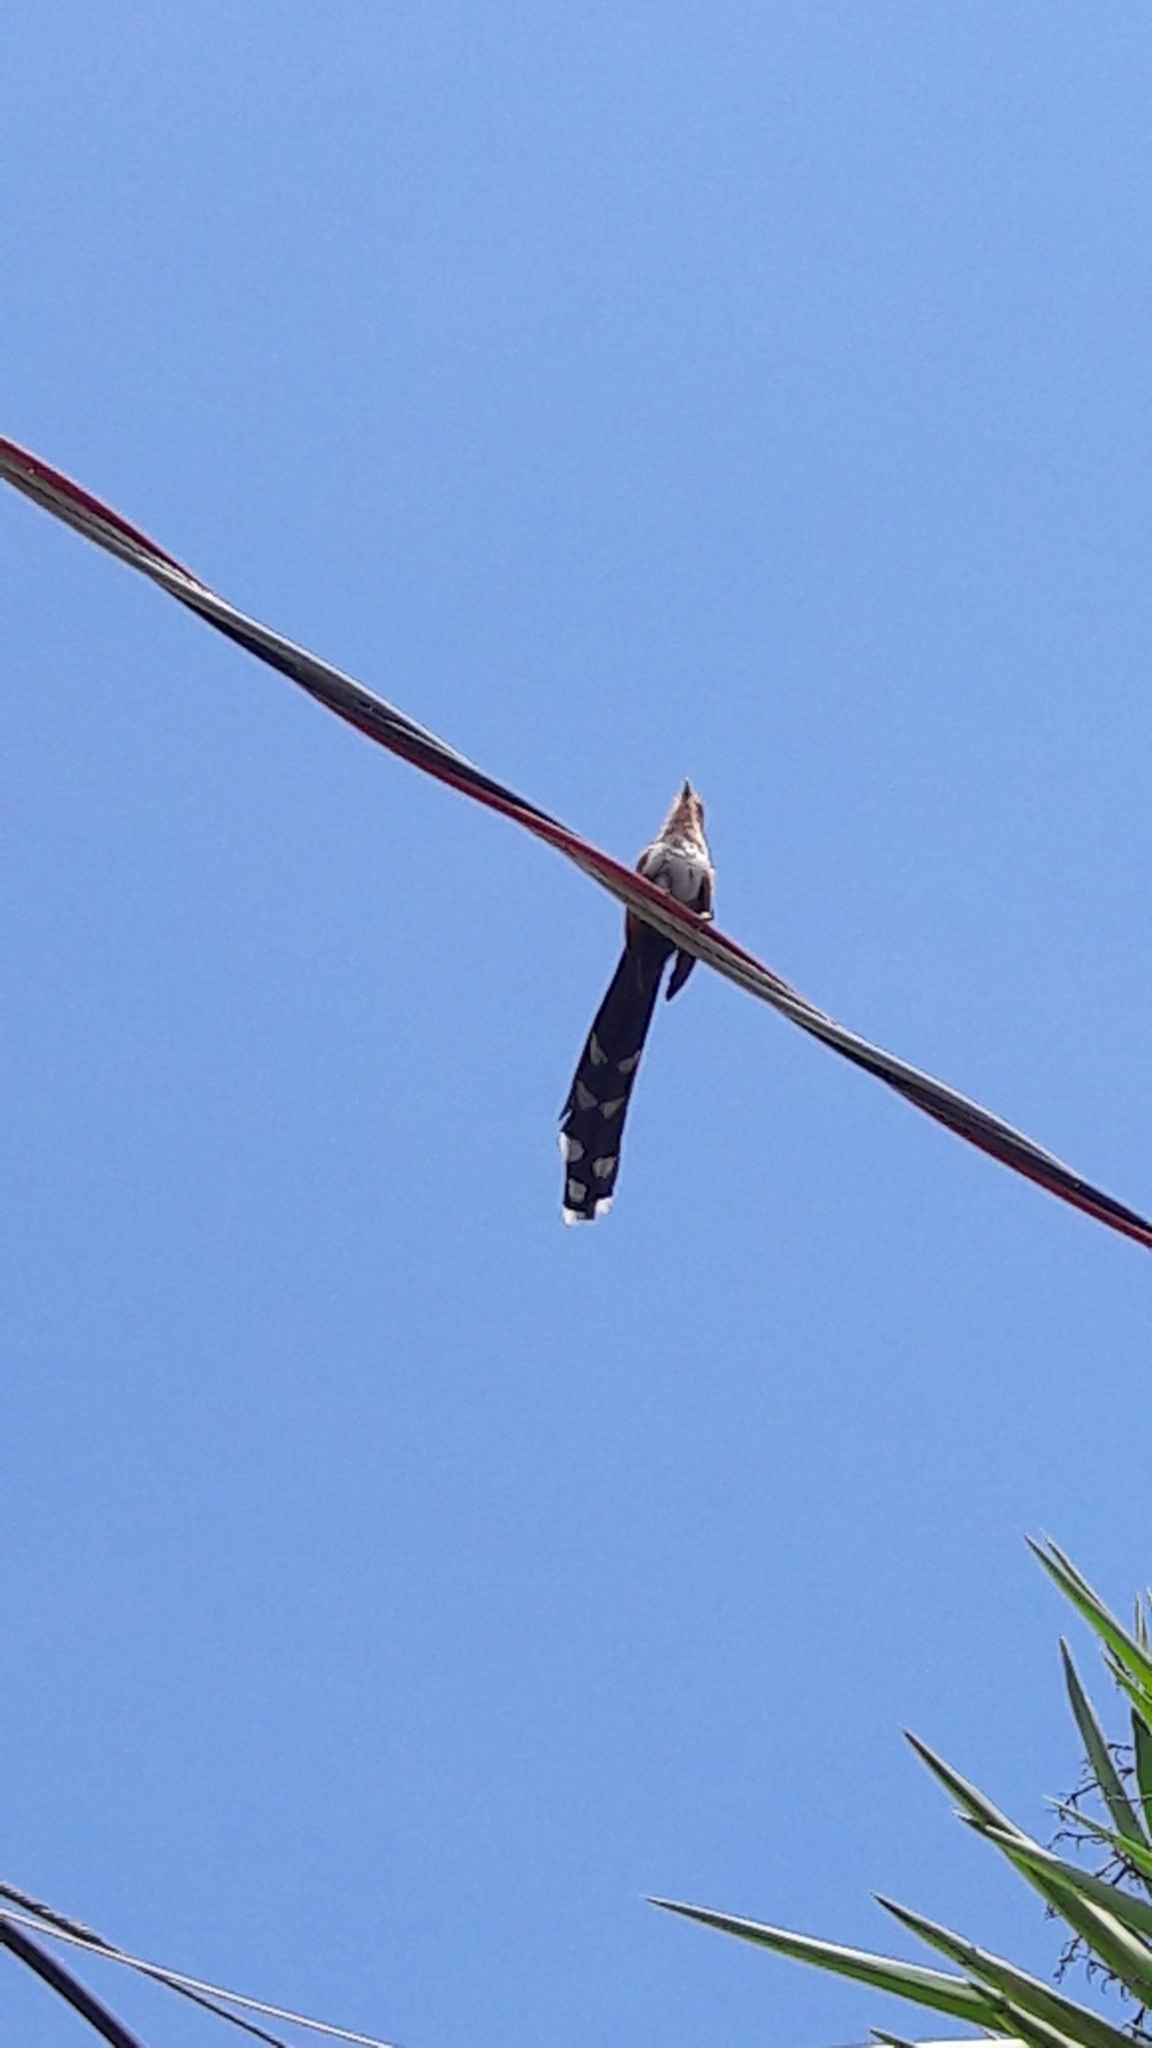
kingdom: Animalia
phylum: Chordata
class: Aves
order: Cuculiformes
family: Cuculidae
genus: Piaya
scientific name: Piaya cayana
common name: Squirrel cuckoo
